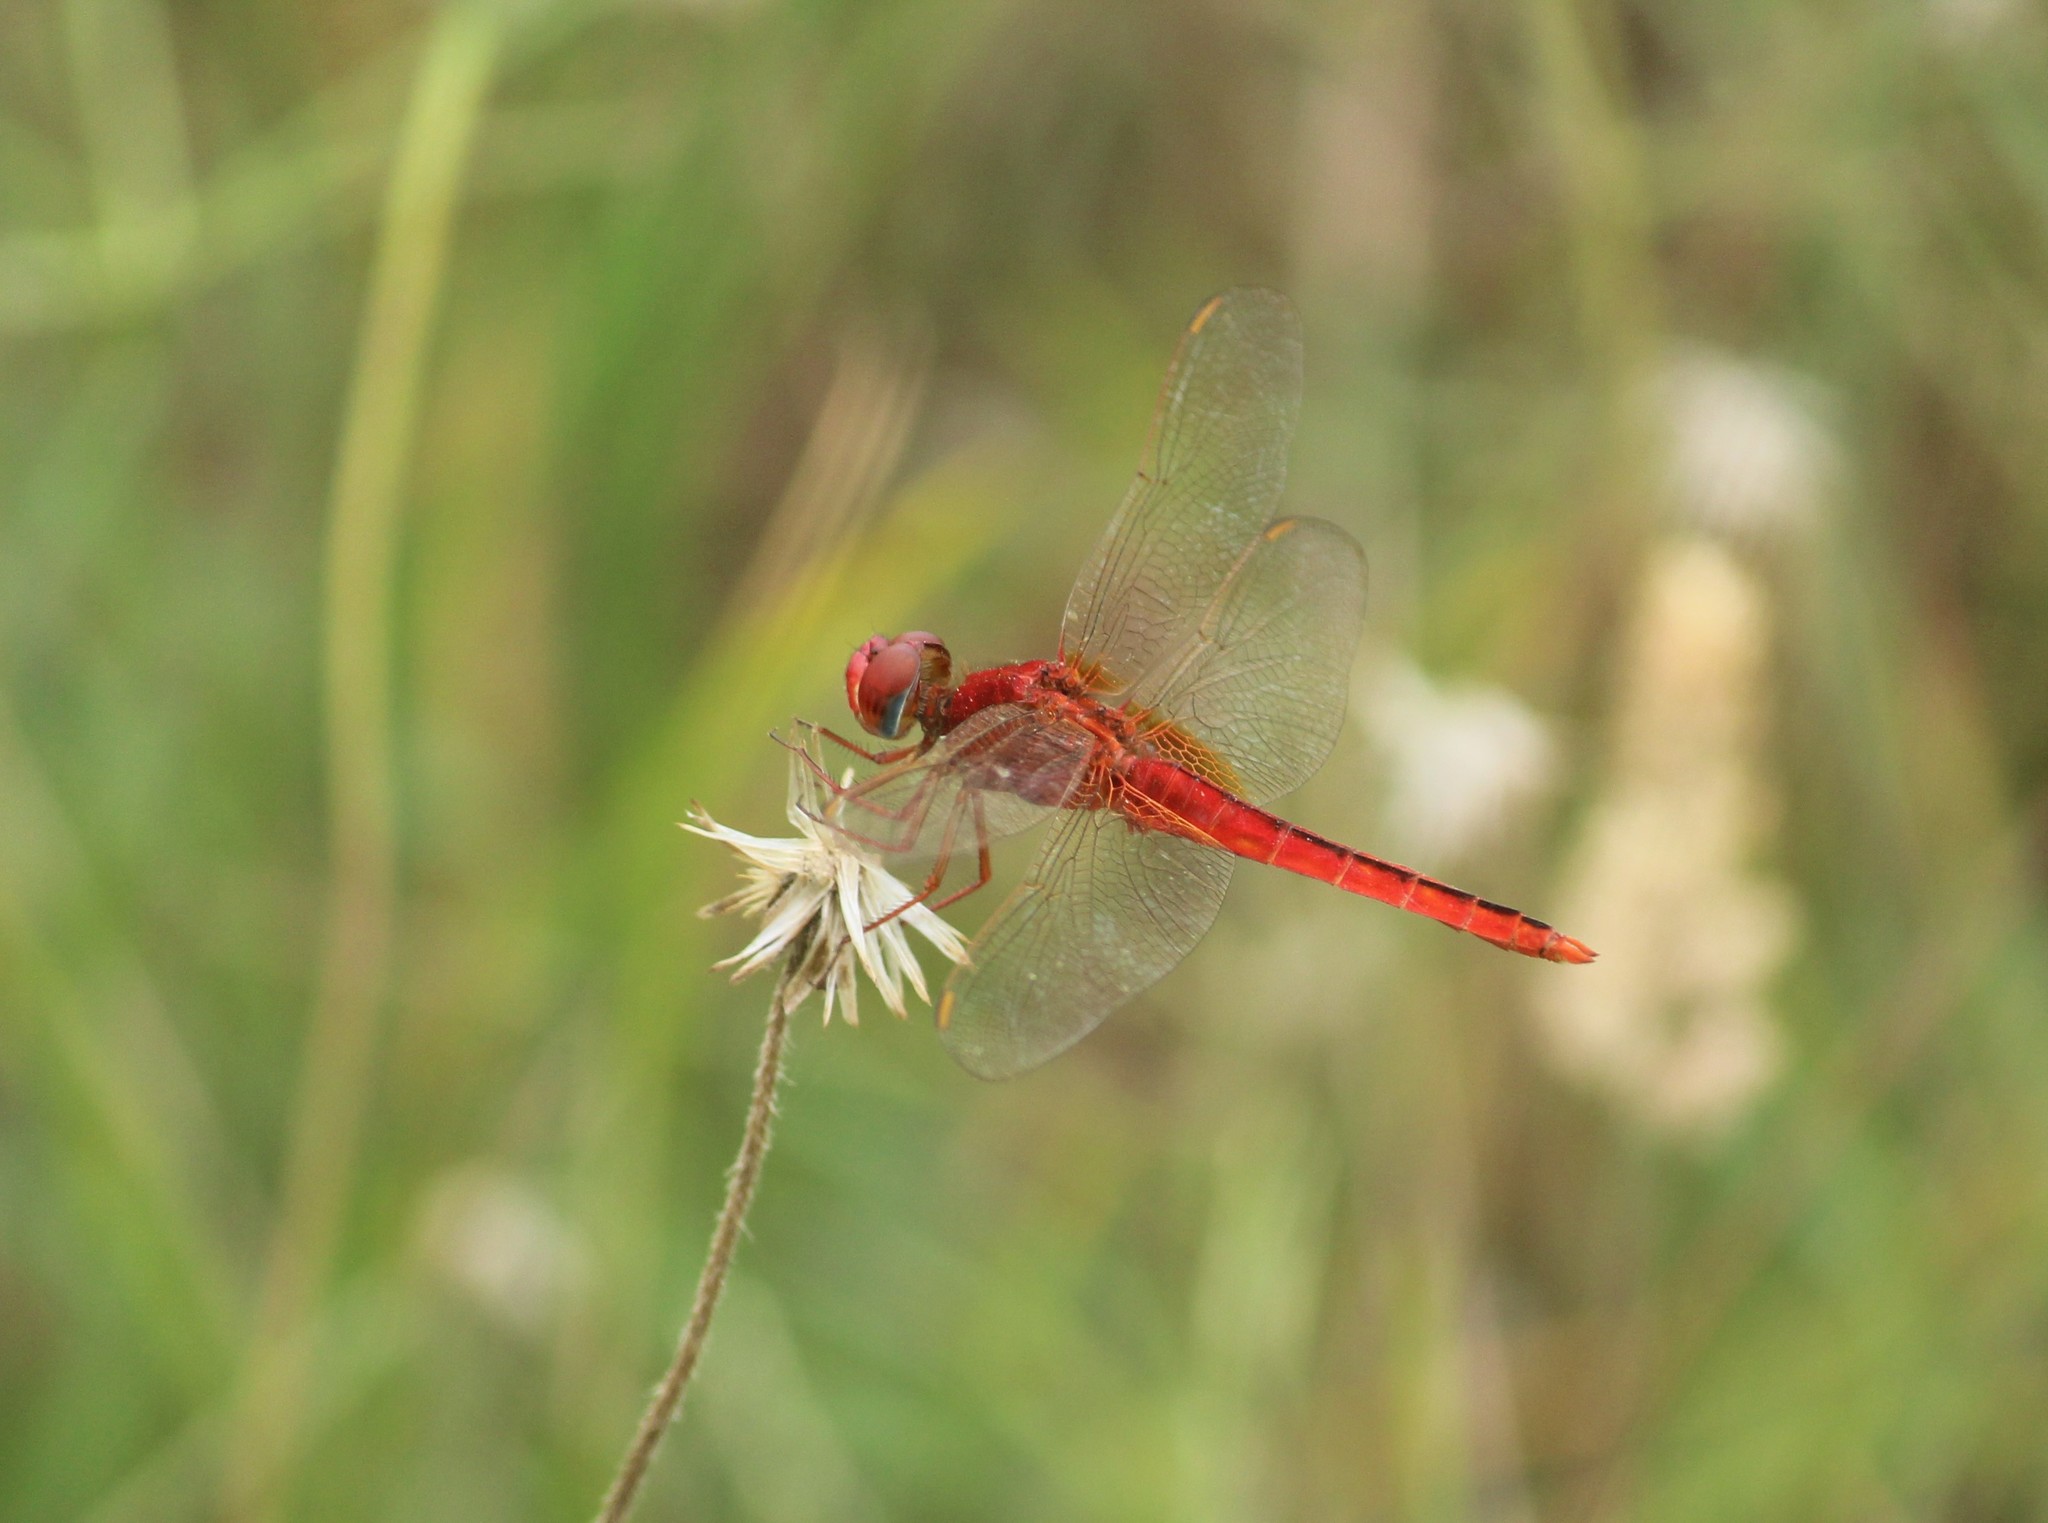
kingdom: Animalia
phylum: Arthropoda
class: Insecta
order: Odonata
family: Libellulidae
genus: Crocothemis
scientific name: Crocothemis servilia
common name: Scarlet skimmer
